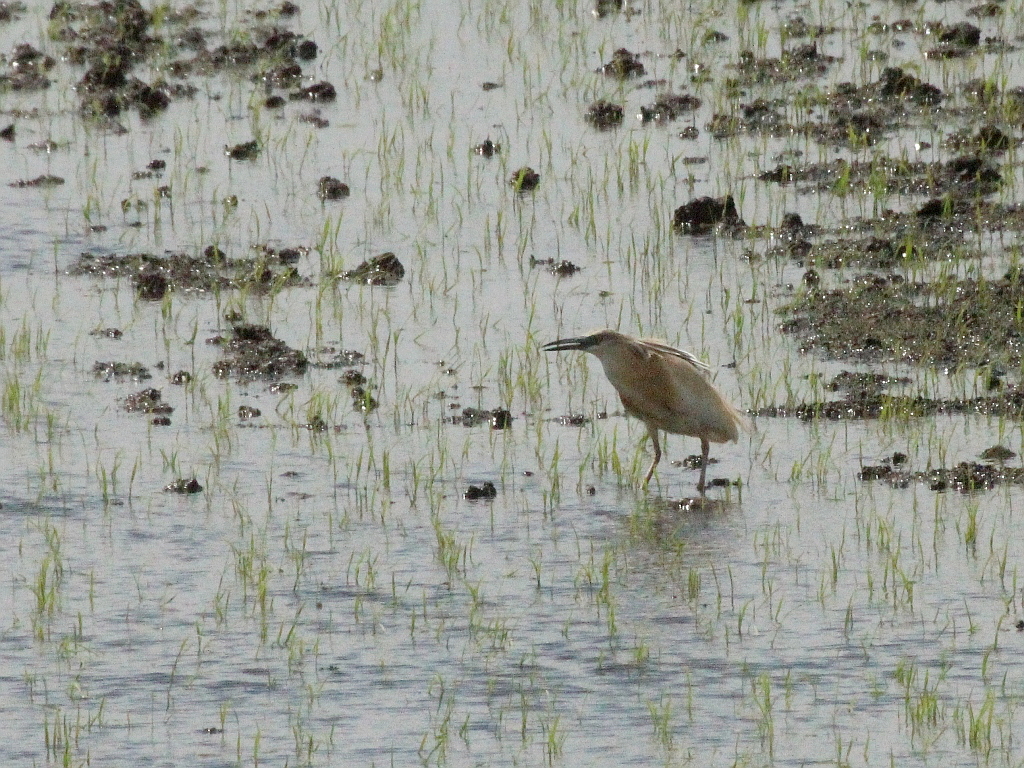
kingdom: Animalia
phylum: Chordata
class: Aves
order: Pelecaniformes
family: Ardeidae
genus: Ardeola
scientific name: Ardeola ralloides
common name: Squacco heron
